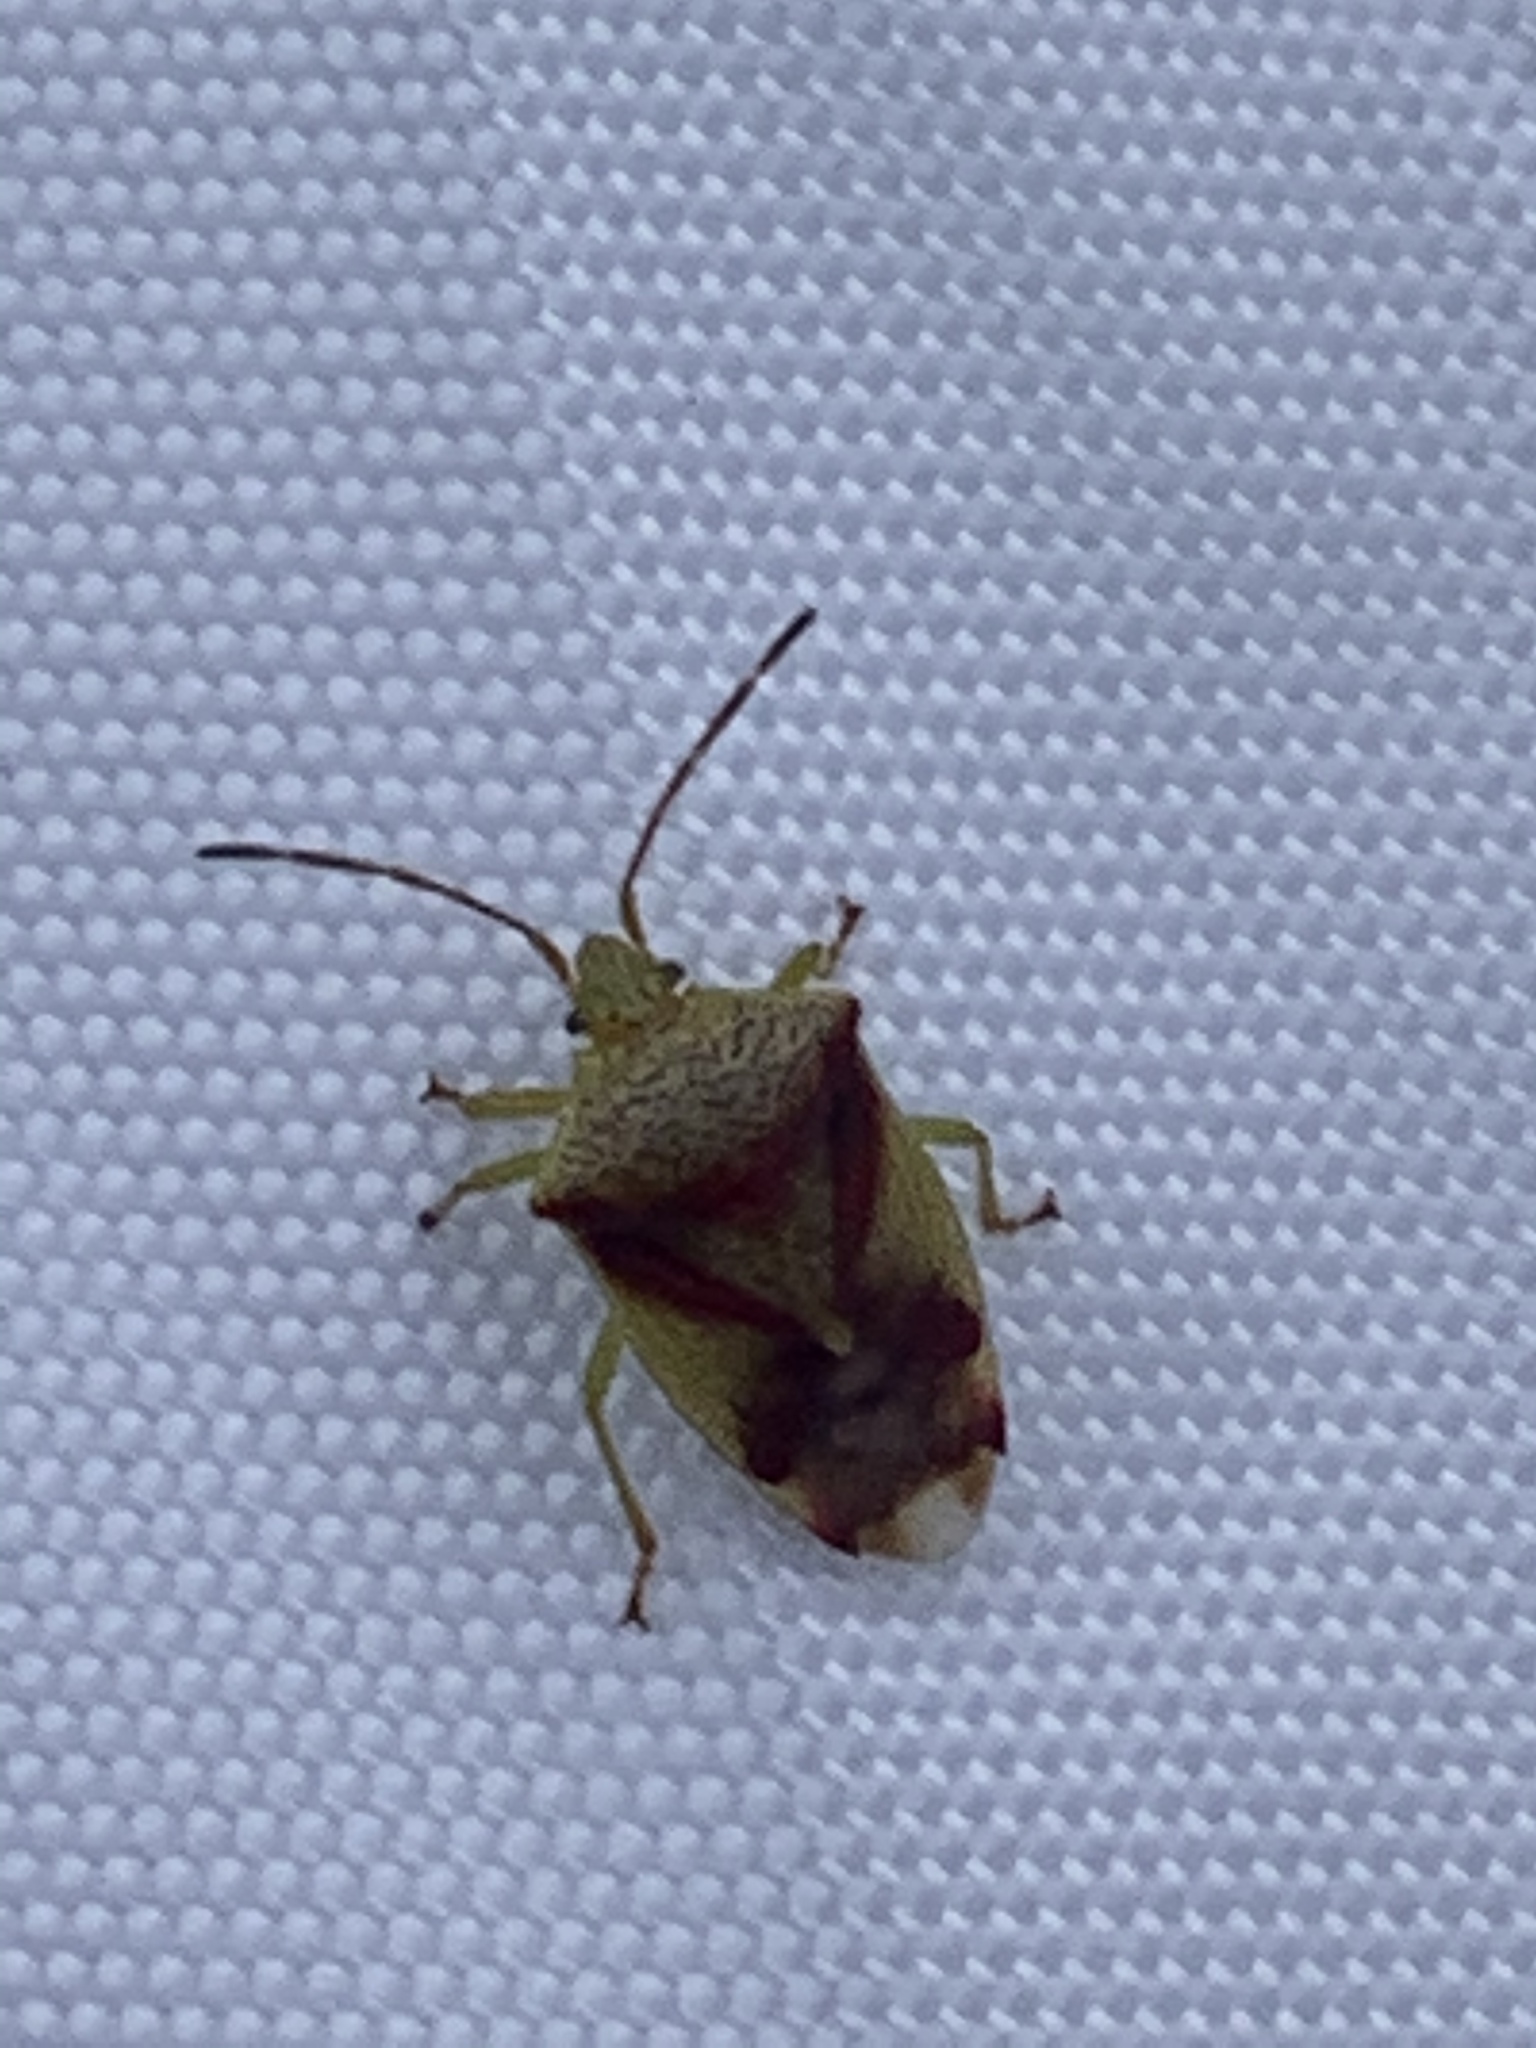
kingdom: Animalia
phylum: Arthropoda
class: Insecta
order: Hemiptera
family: Acanthosomatidae
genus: Elasmostethus
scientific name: Elasmostethus cruciatus
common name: Red-cross shield bug
